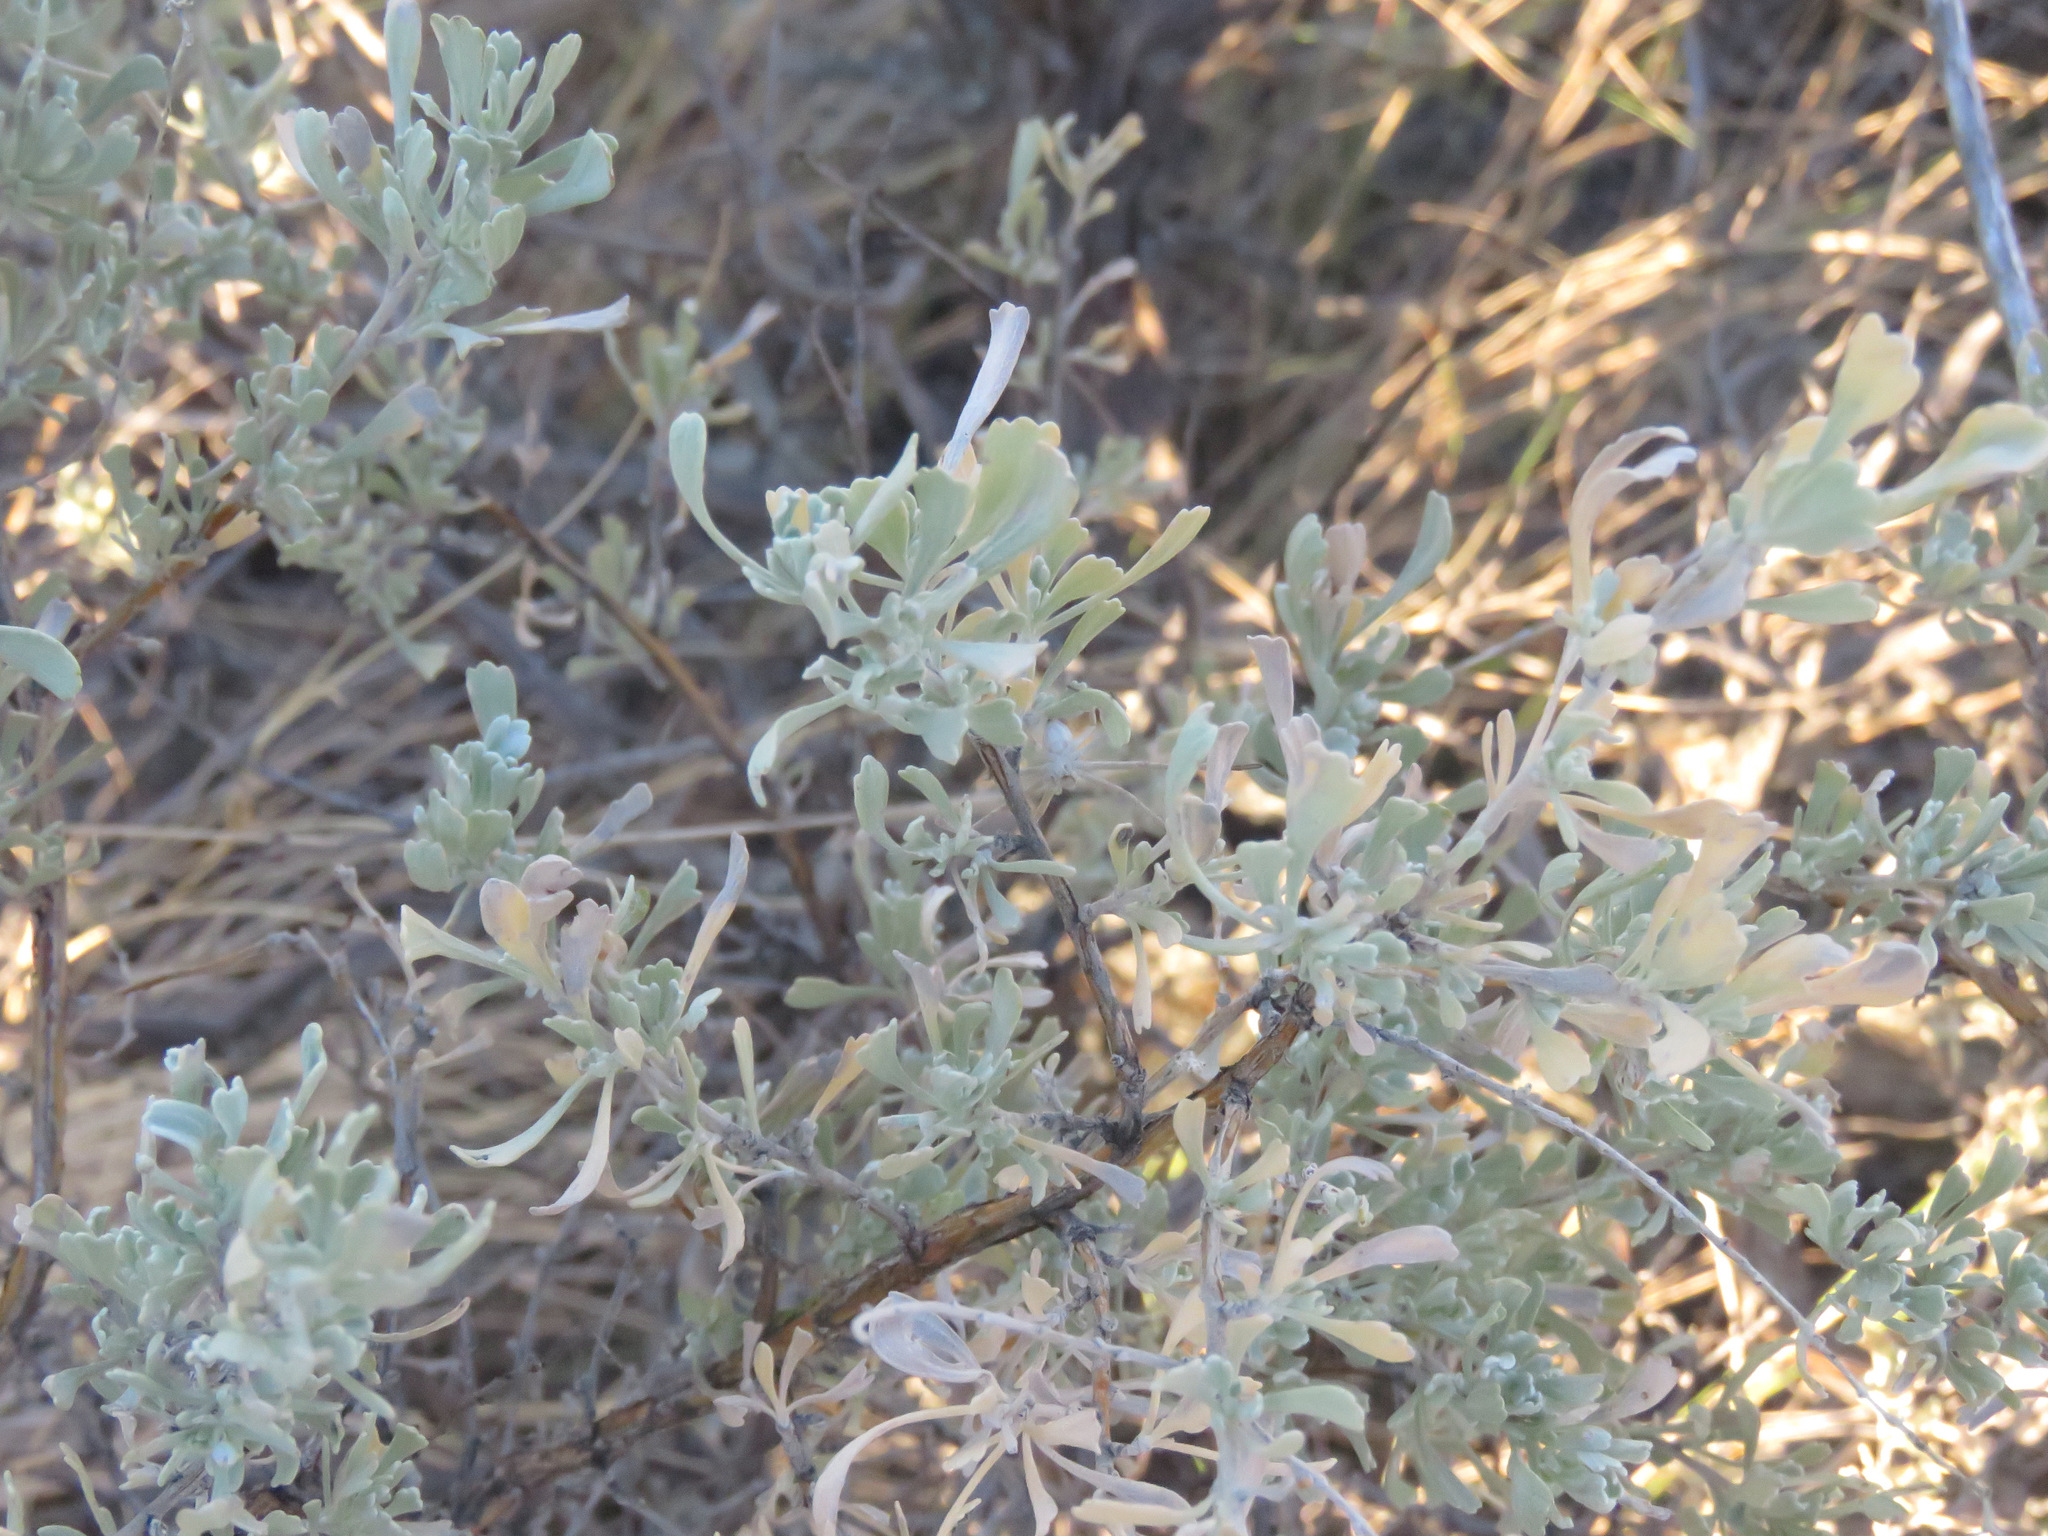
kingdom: Plantae
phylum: Tracheophyta
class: Magnoliopsida
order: Asterales
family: Asteraceae
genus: Artemisia
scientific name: Artemisia tridentata
